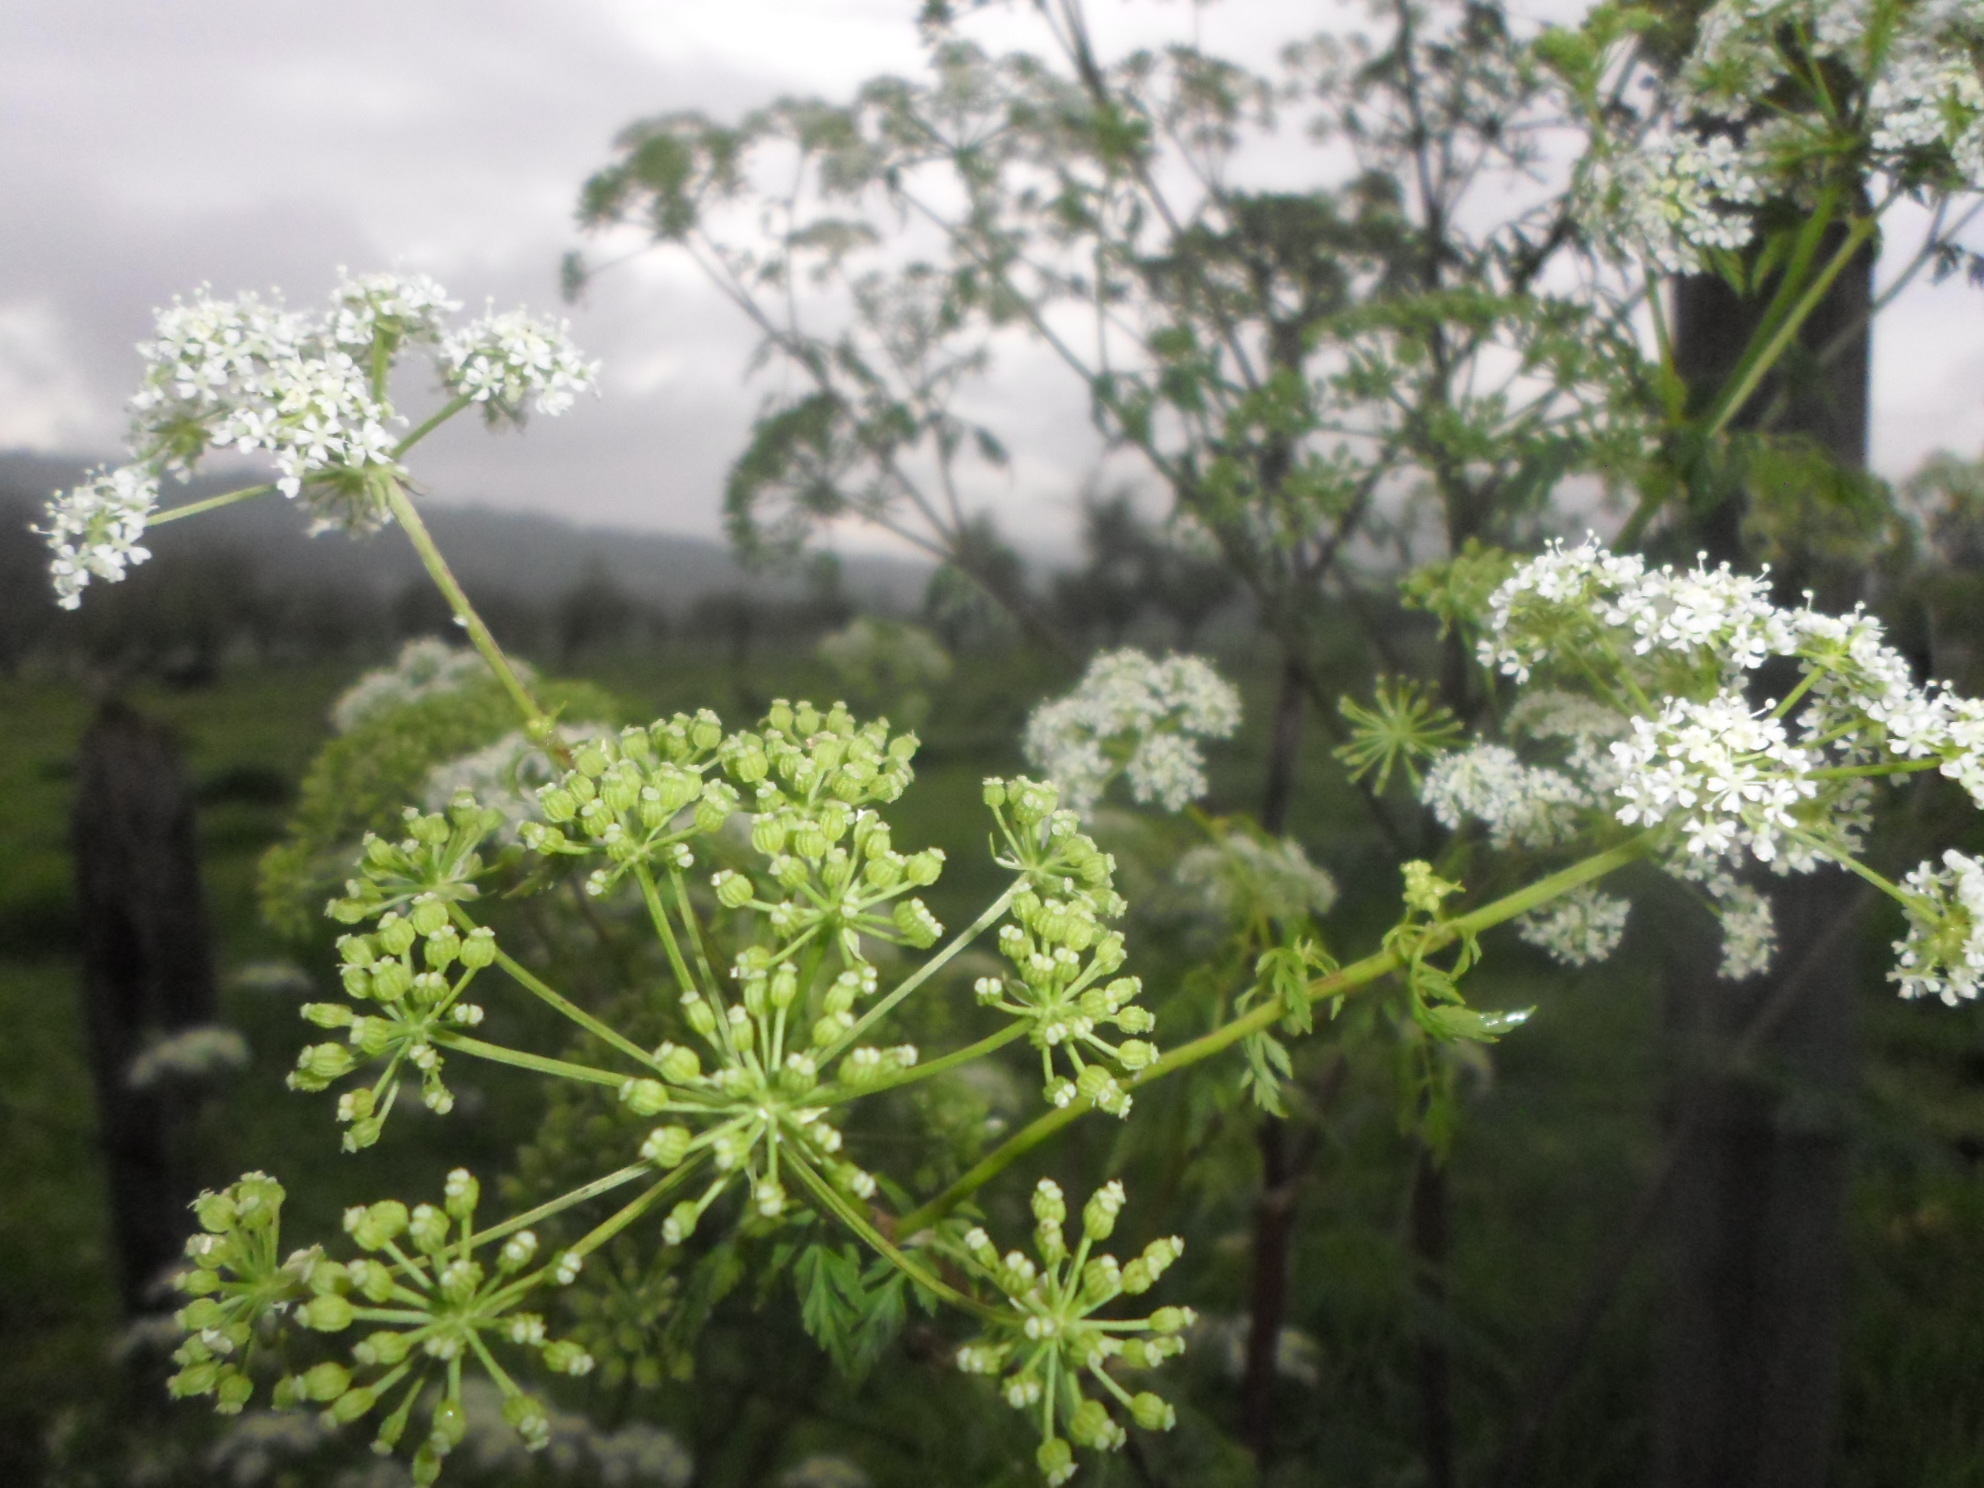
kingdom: Plantae
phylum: Tracheophyta
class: Magnoliopsida
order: Apiales
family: Apiaceae
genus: Conium
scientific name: Conium maculatum
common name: Hemlock
